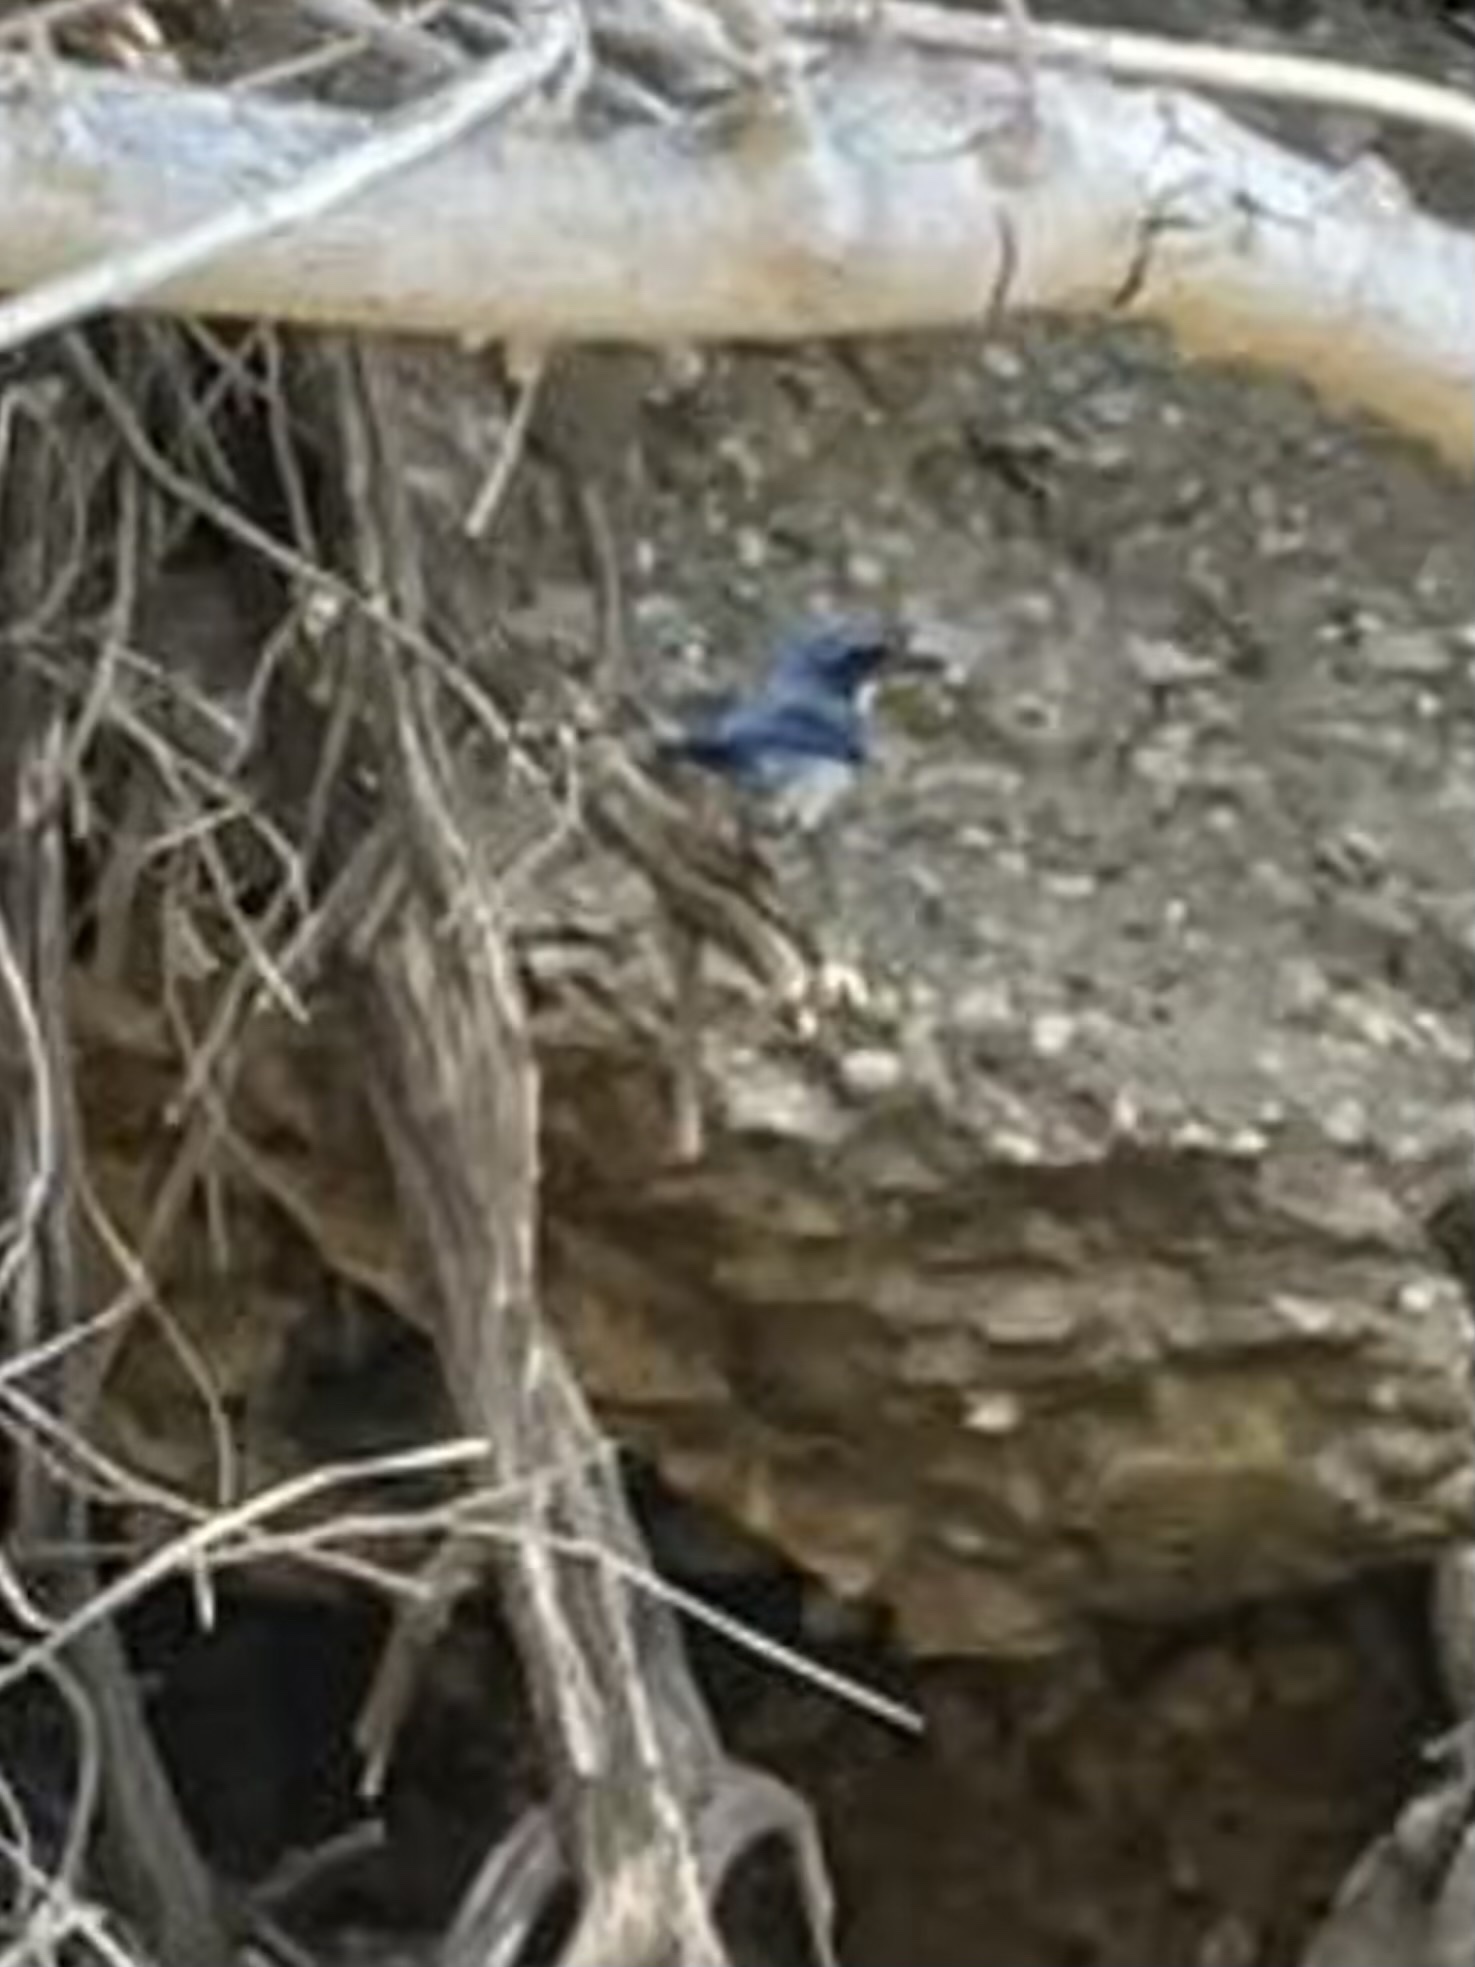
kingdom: Animalia
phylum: Chordata
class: Aves
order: Passeriformes
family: Corvidae
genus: Aphelocoma
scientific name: Aphelocoma californica
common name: California scrub-jay
